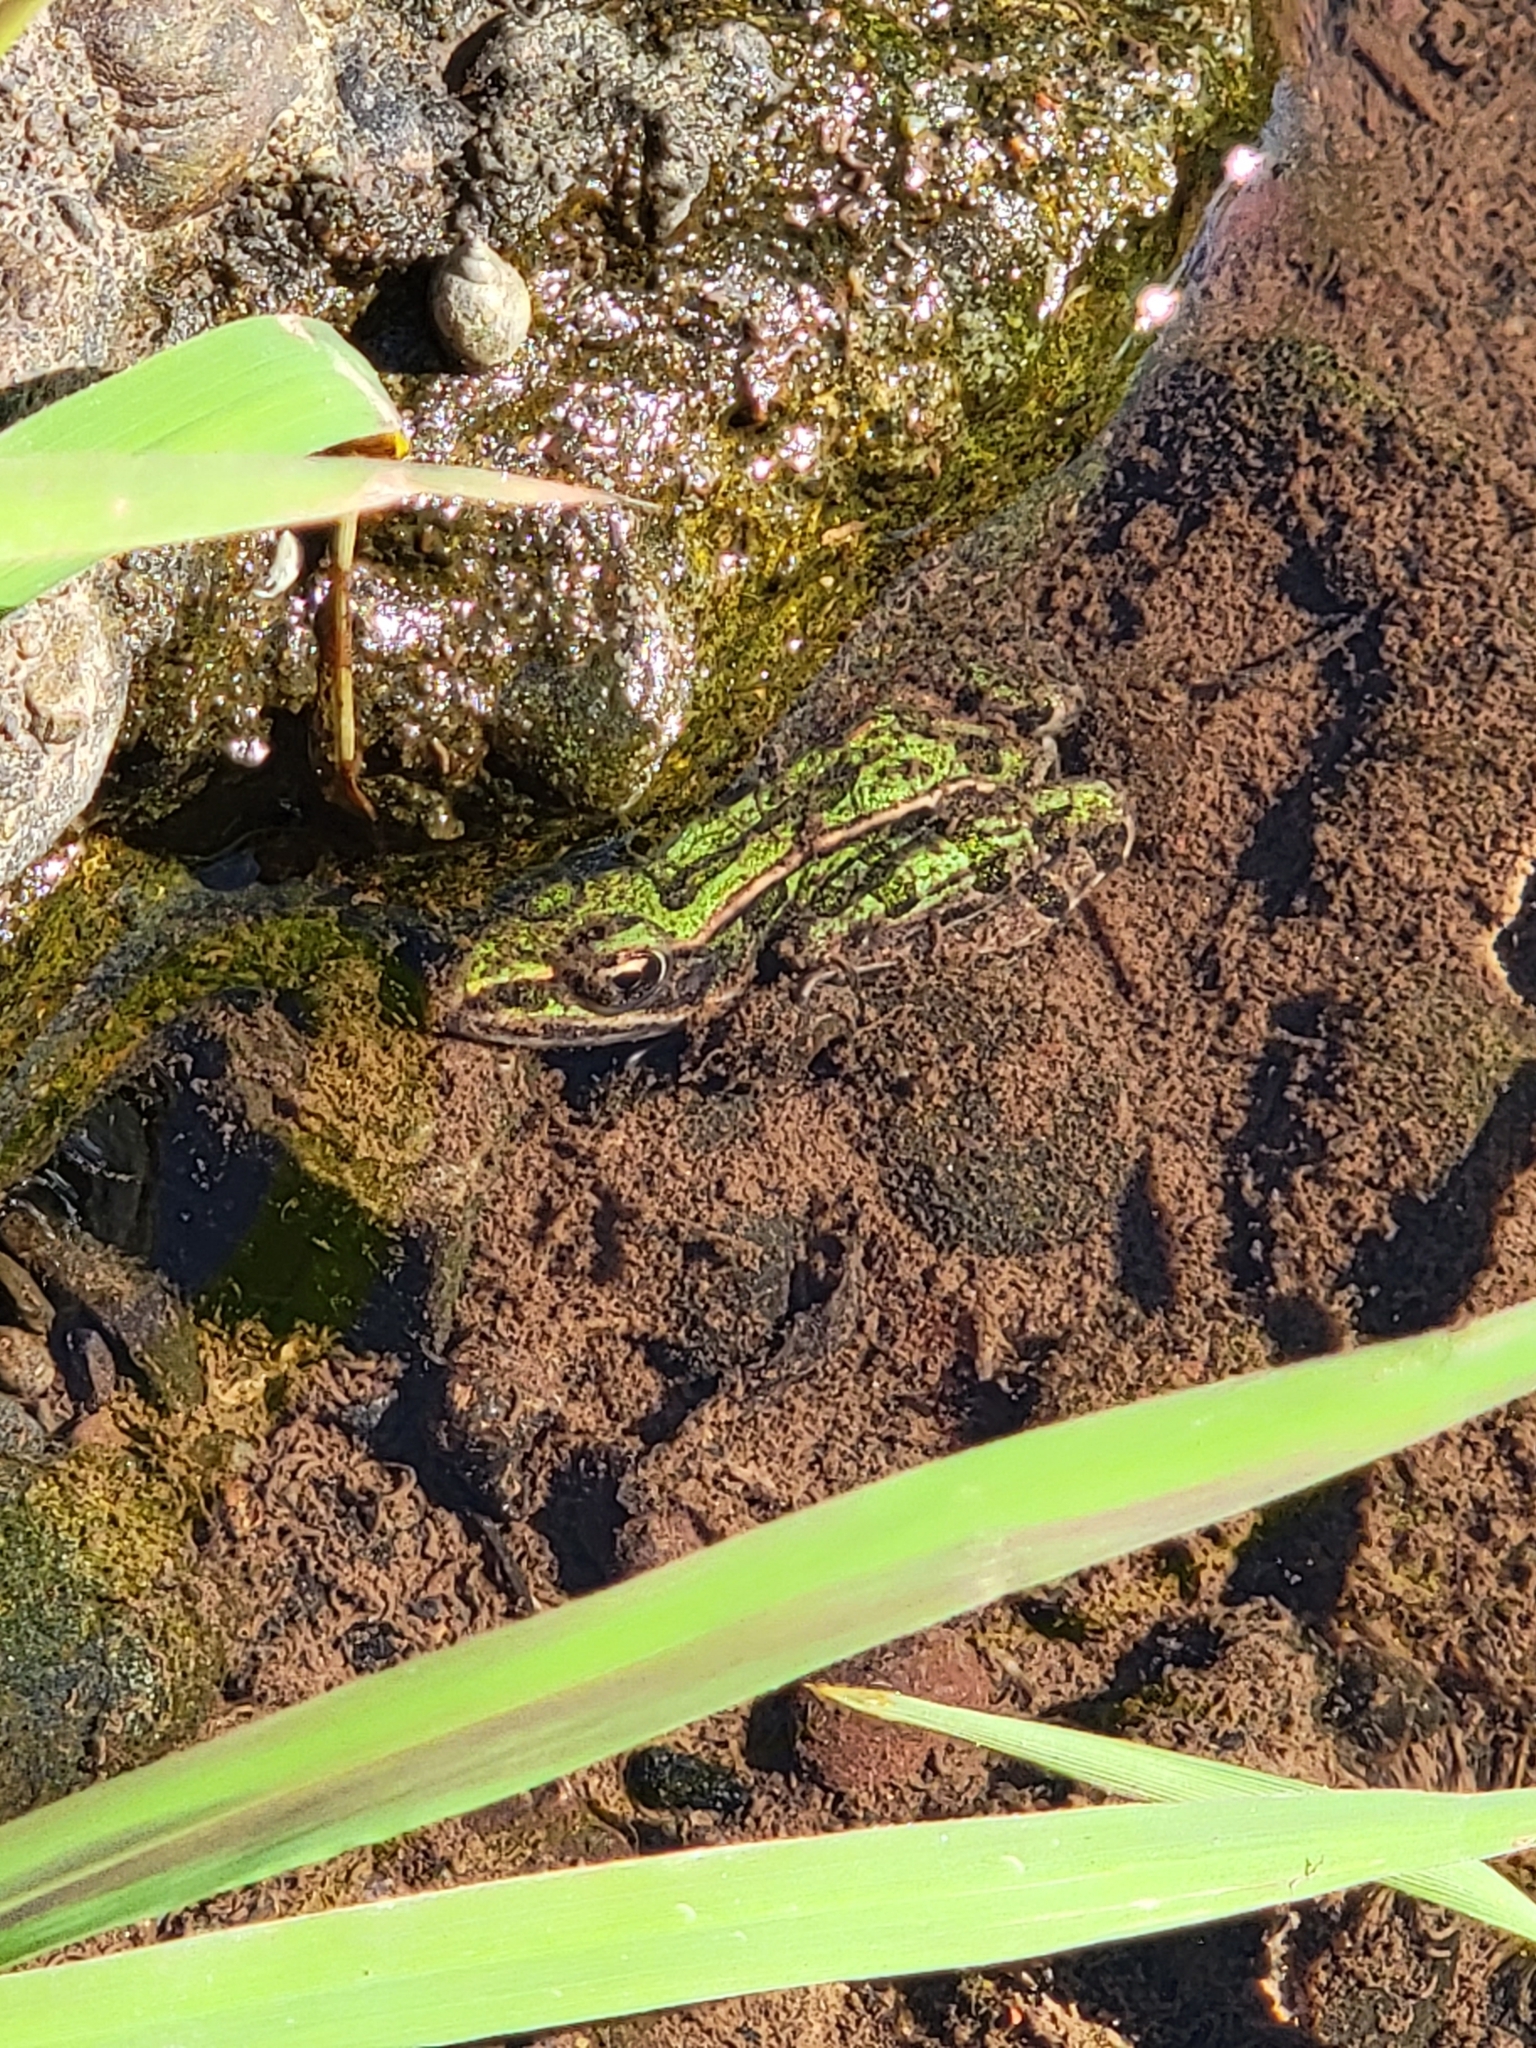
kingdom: Animalia
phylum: Chordata
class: Amphibia
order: Anura
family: Ranidae
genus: Lithobates
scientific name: Lithobates pipiens
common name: Northern leopard frog
